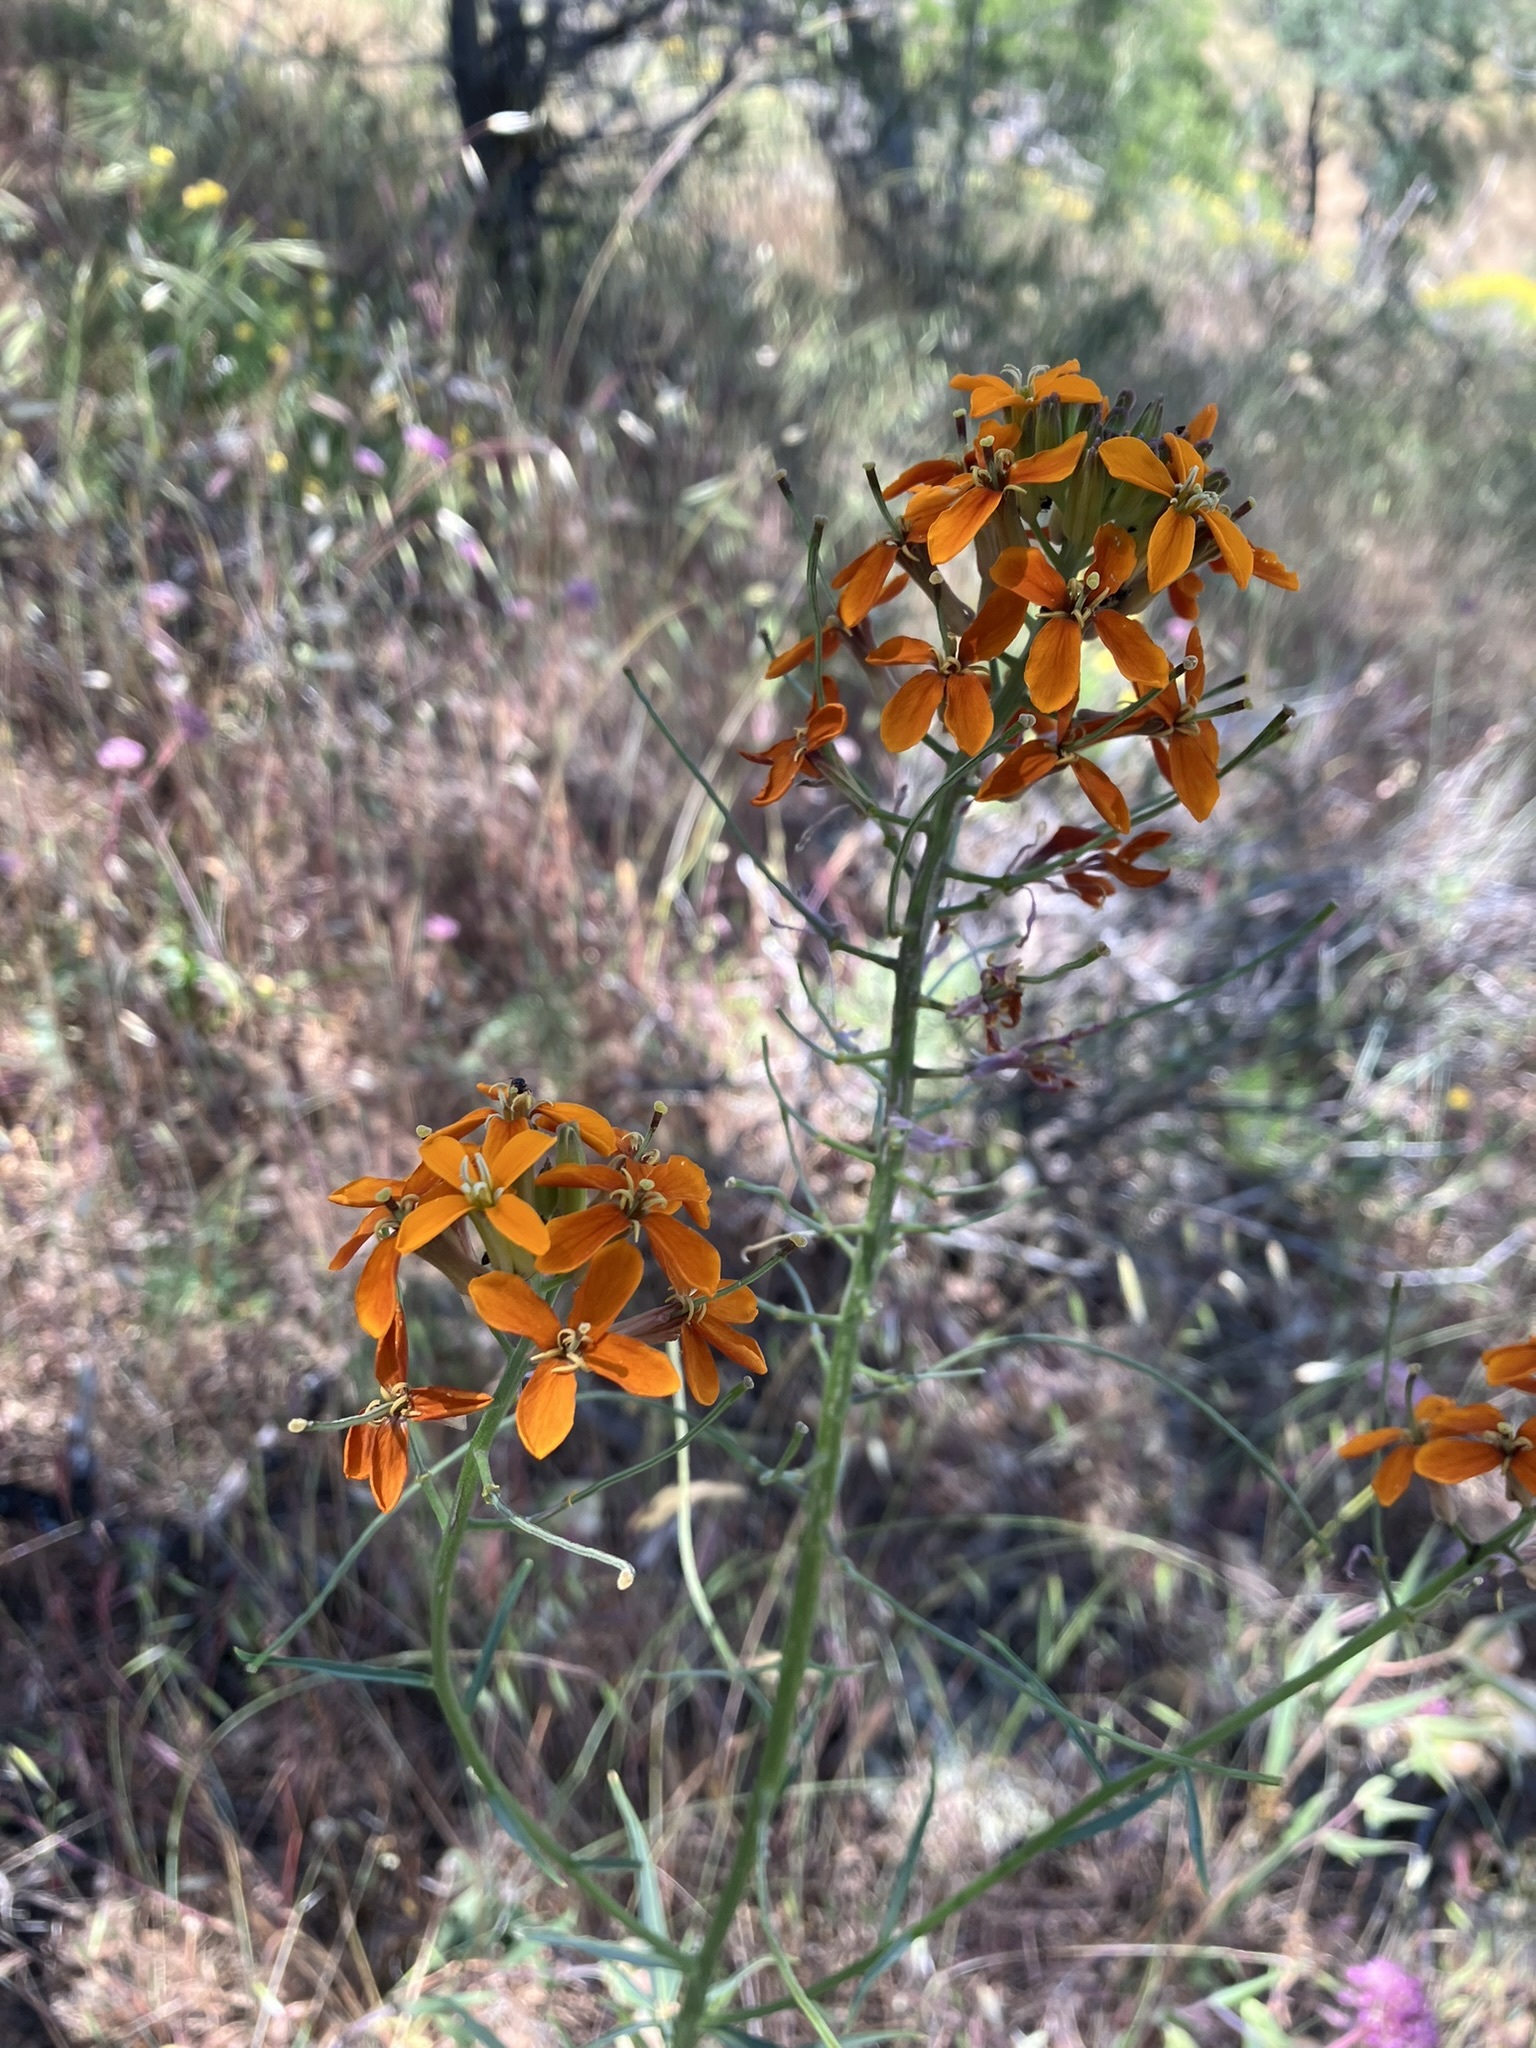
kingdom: Plantae
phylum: Tracheophyta
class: Magnoliopsida
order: Brassicales
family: Brassicaceae
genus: Erysimum
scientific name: Erysimum capitatum
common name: Western wallflower
